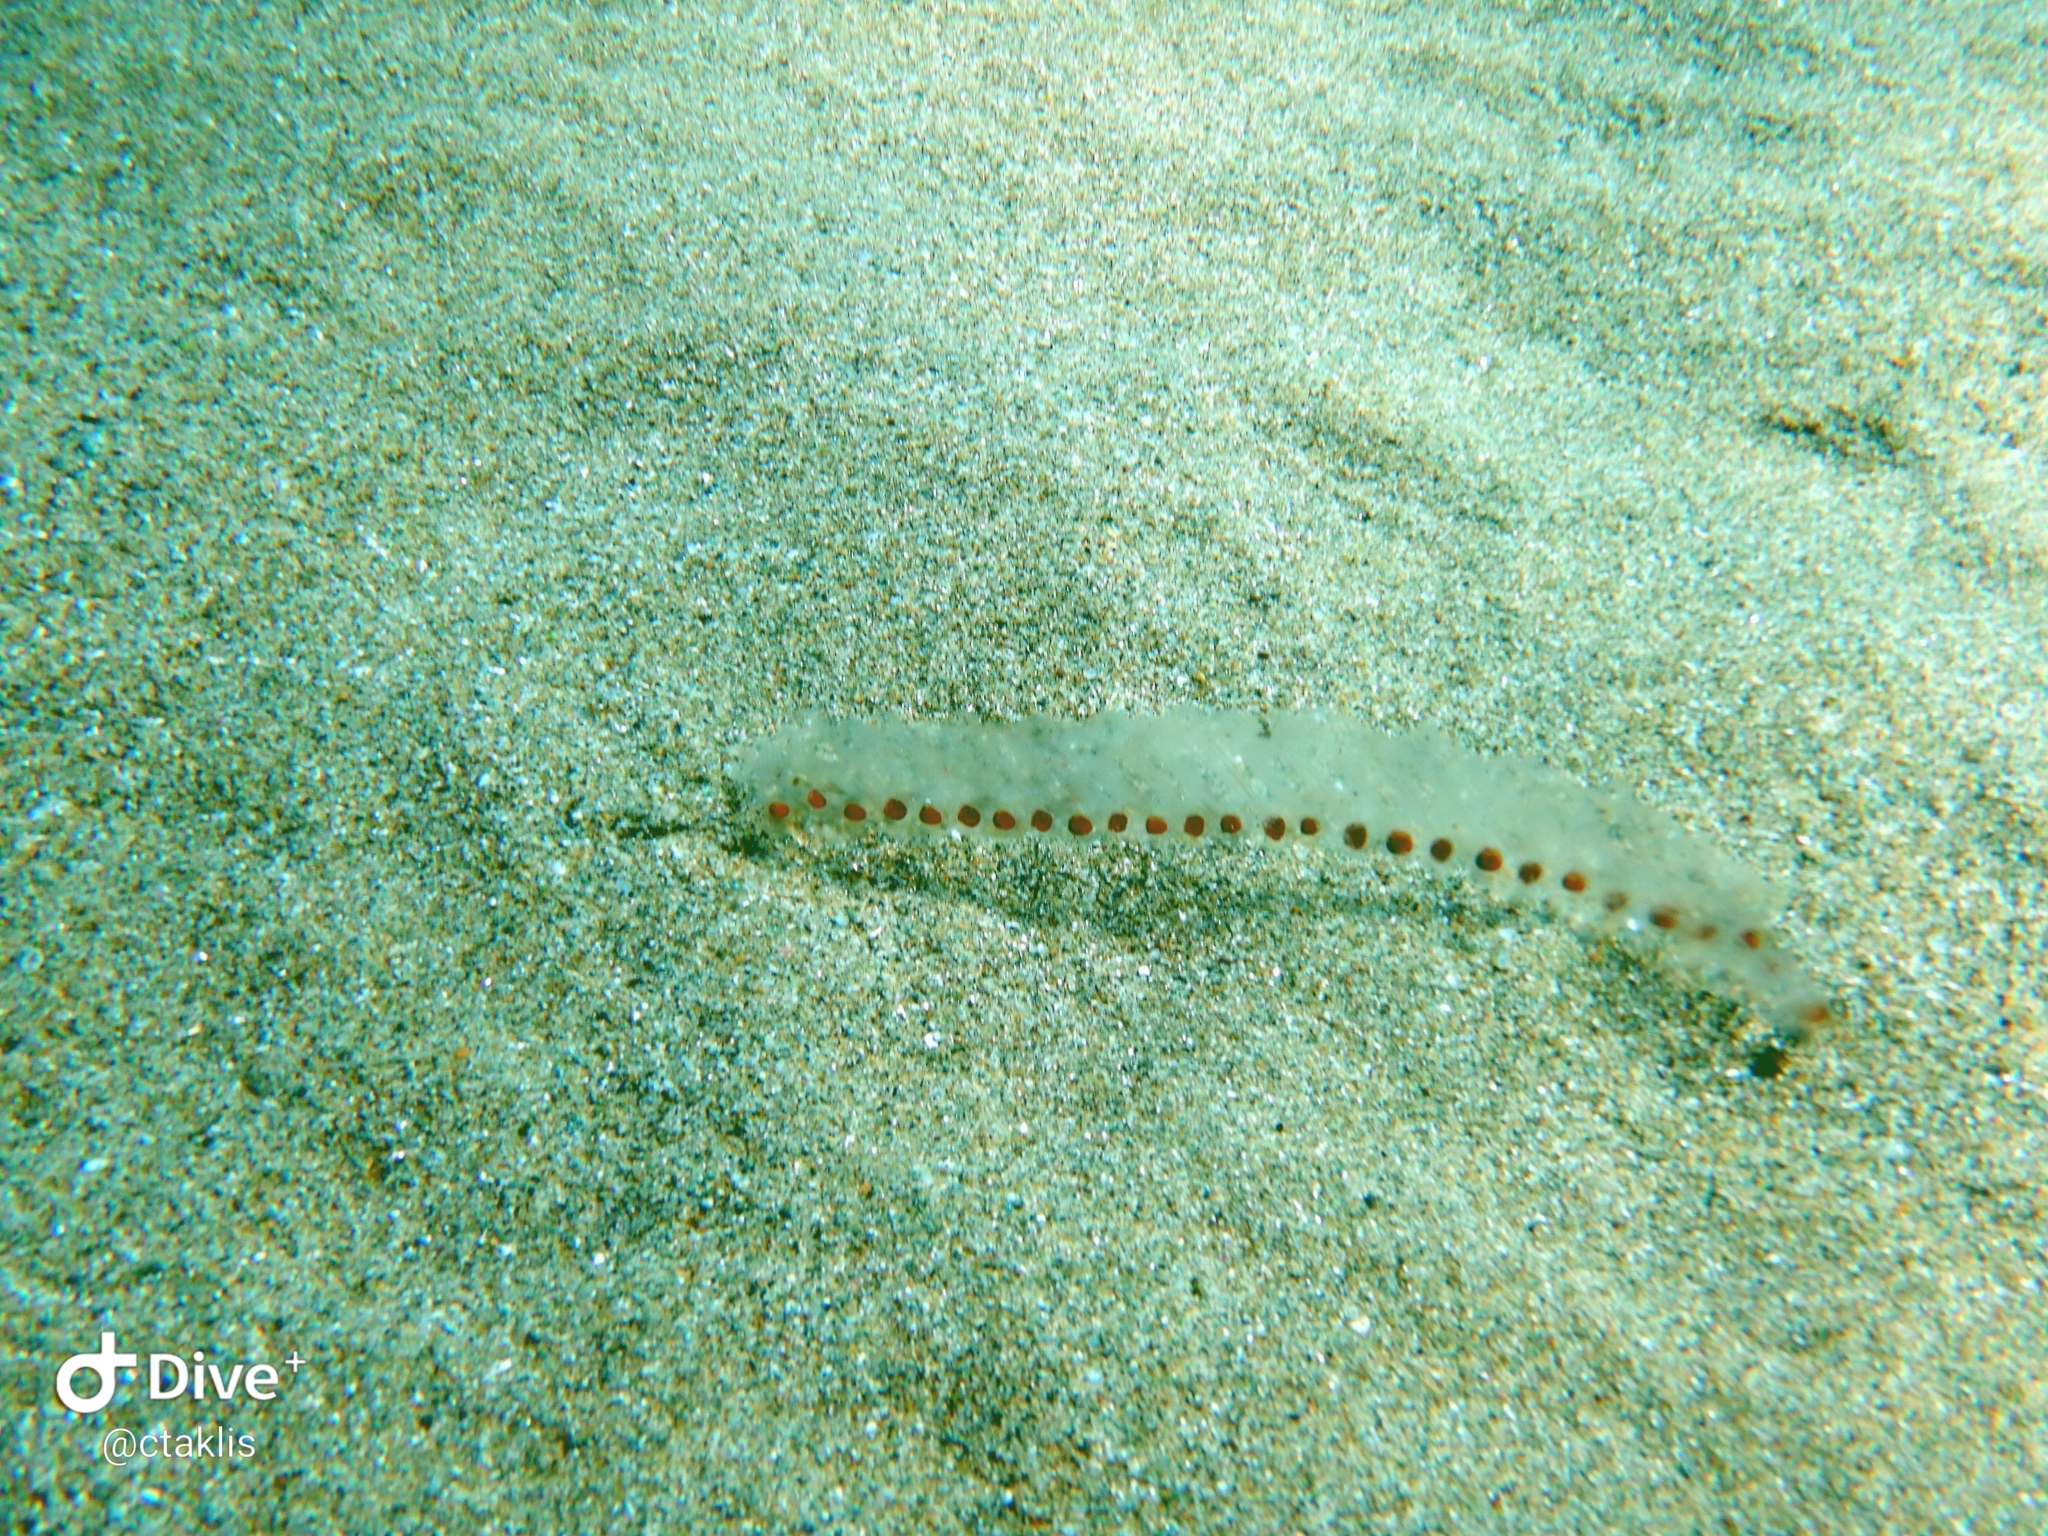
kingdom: Animalia
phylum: Chordata
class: Thaliacea
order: Salpida
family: Salpidae
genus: Salpa
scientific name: Salpa maxima
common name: Giant salp
